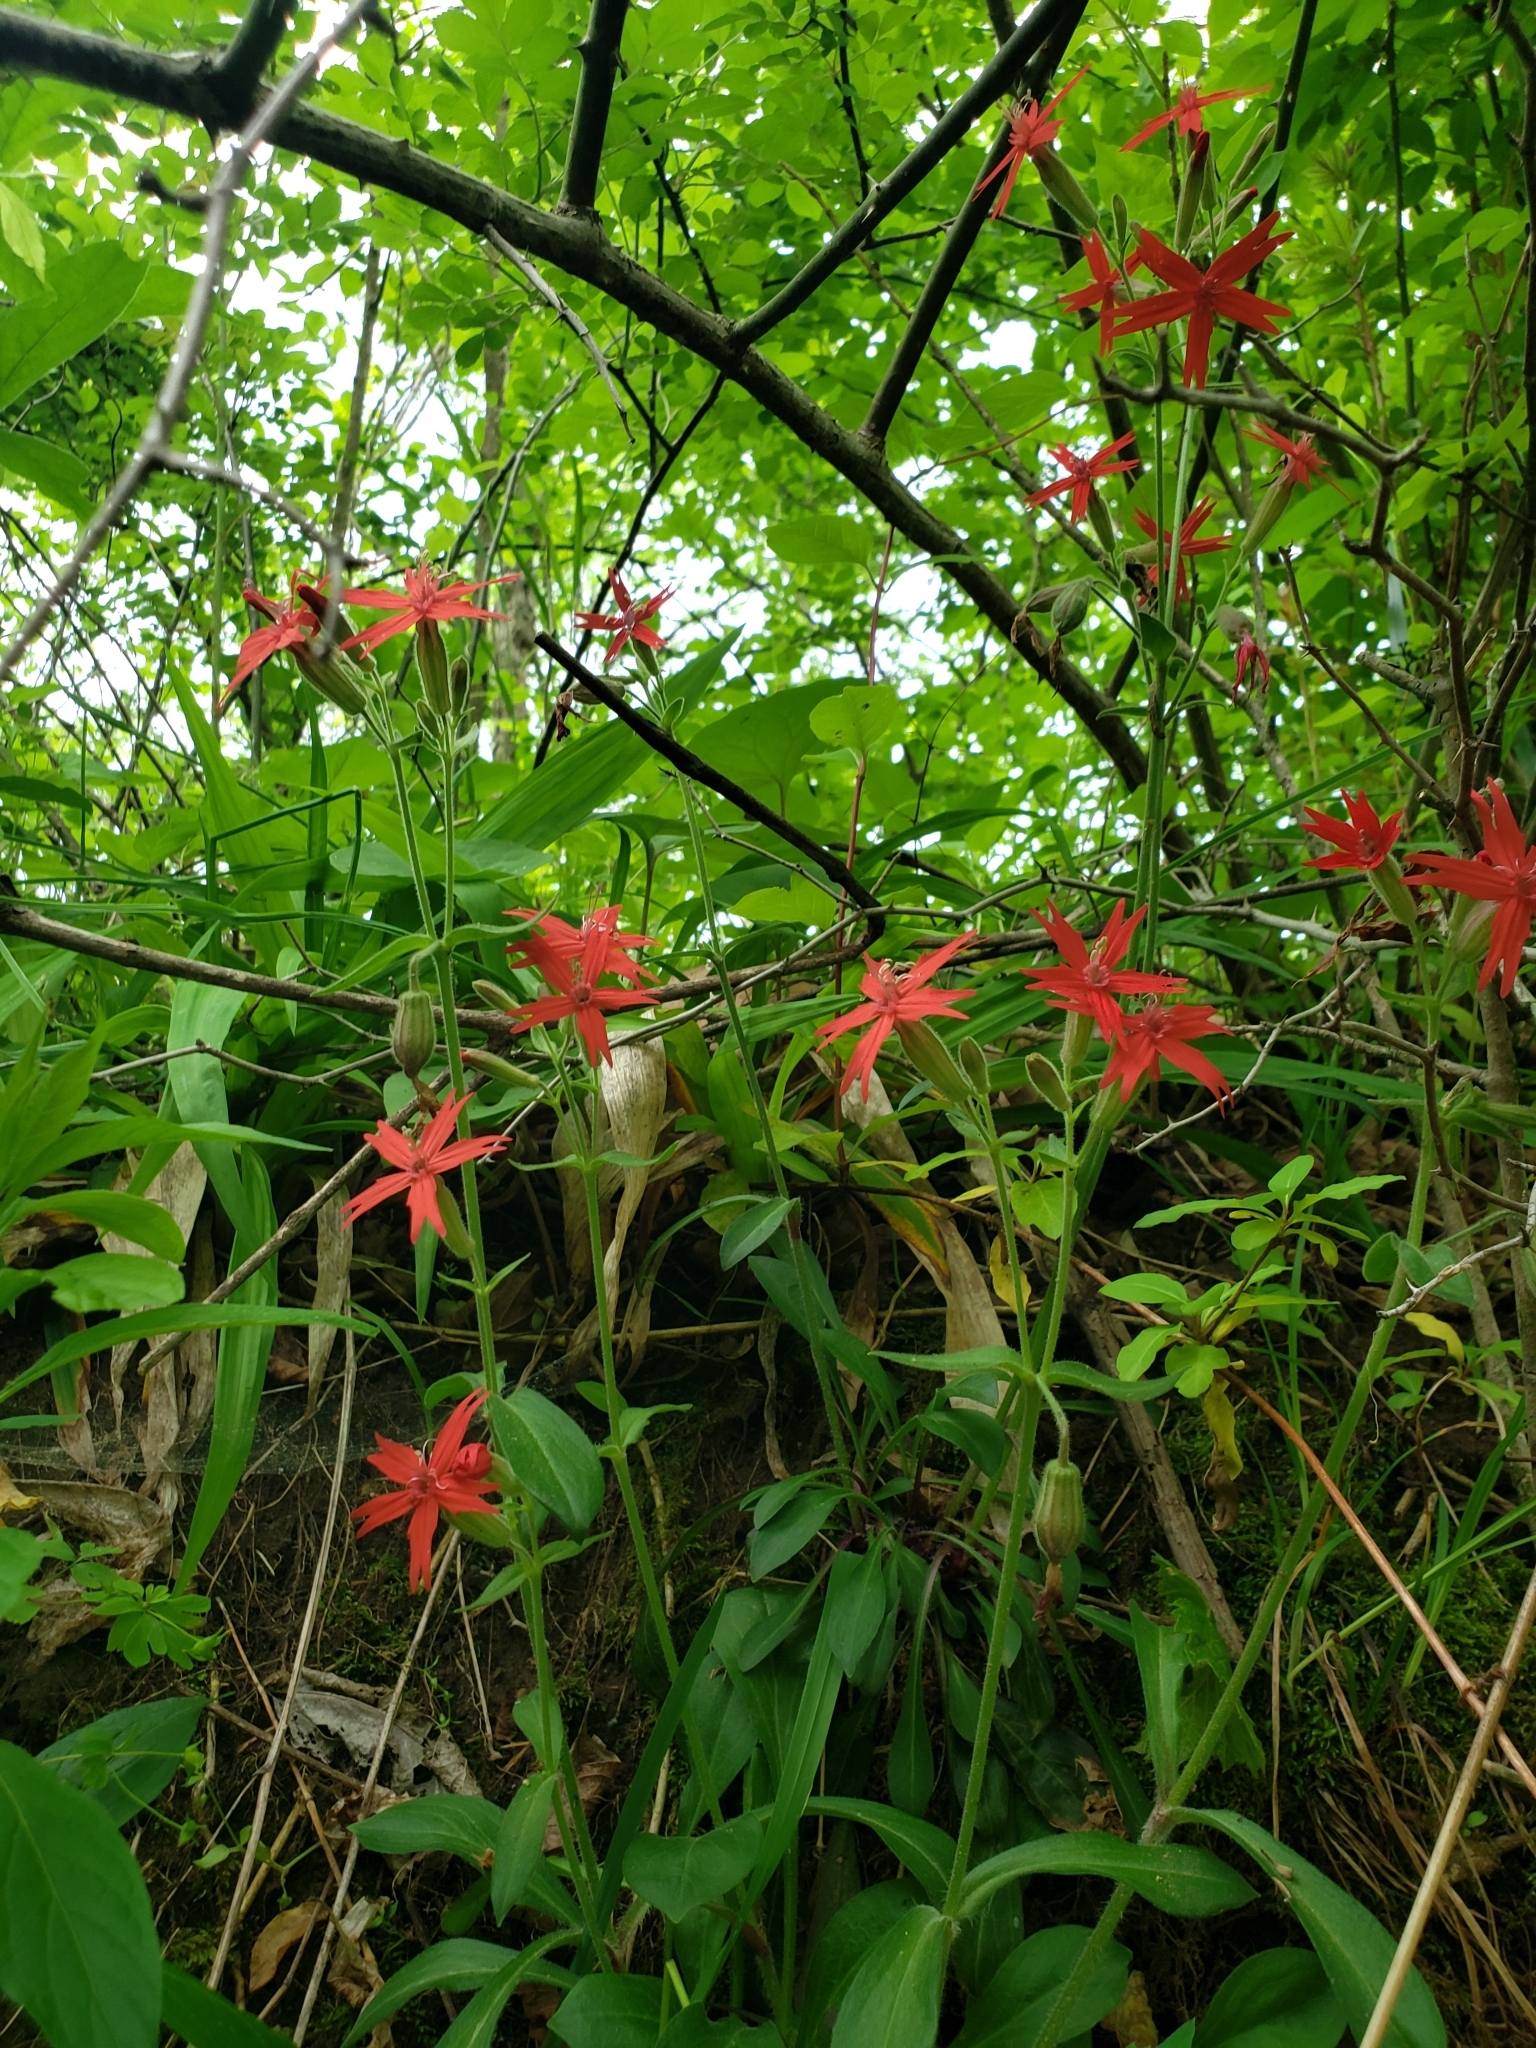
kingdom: Plantae
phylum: Tracheophyta
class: Magnoliopsida
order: Caryophyllales
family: Caryophyllaceae
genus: Silene
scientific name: Silene virginica
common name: Fire-pink
